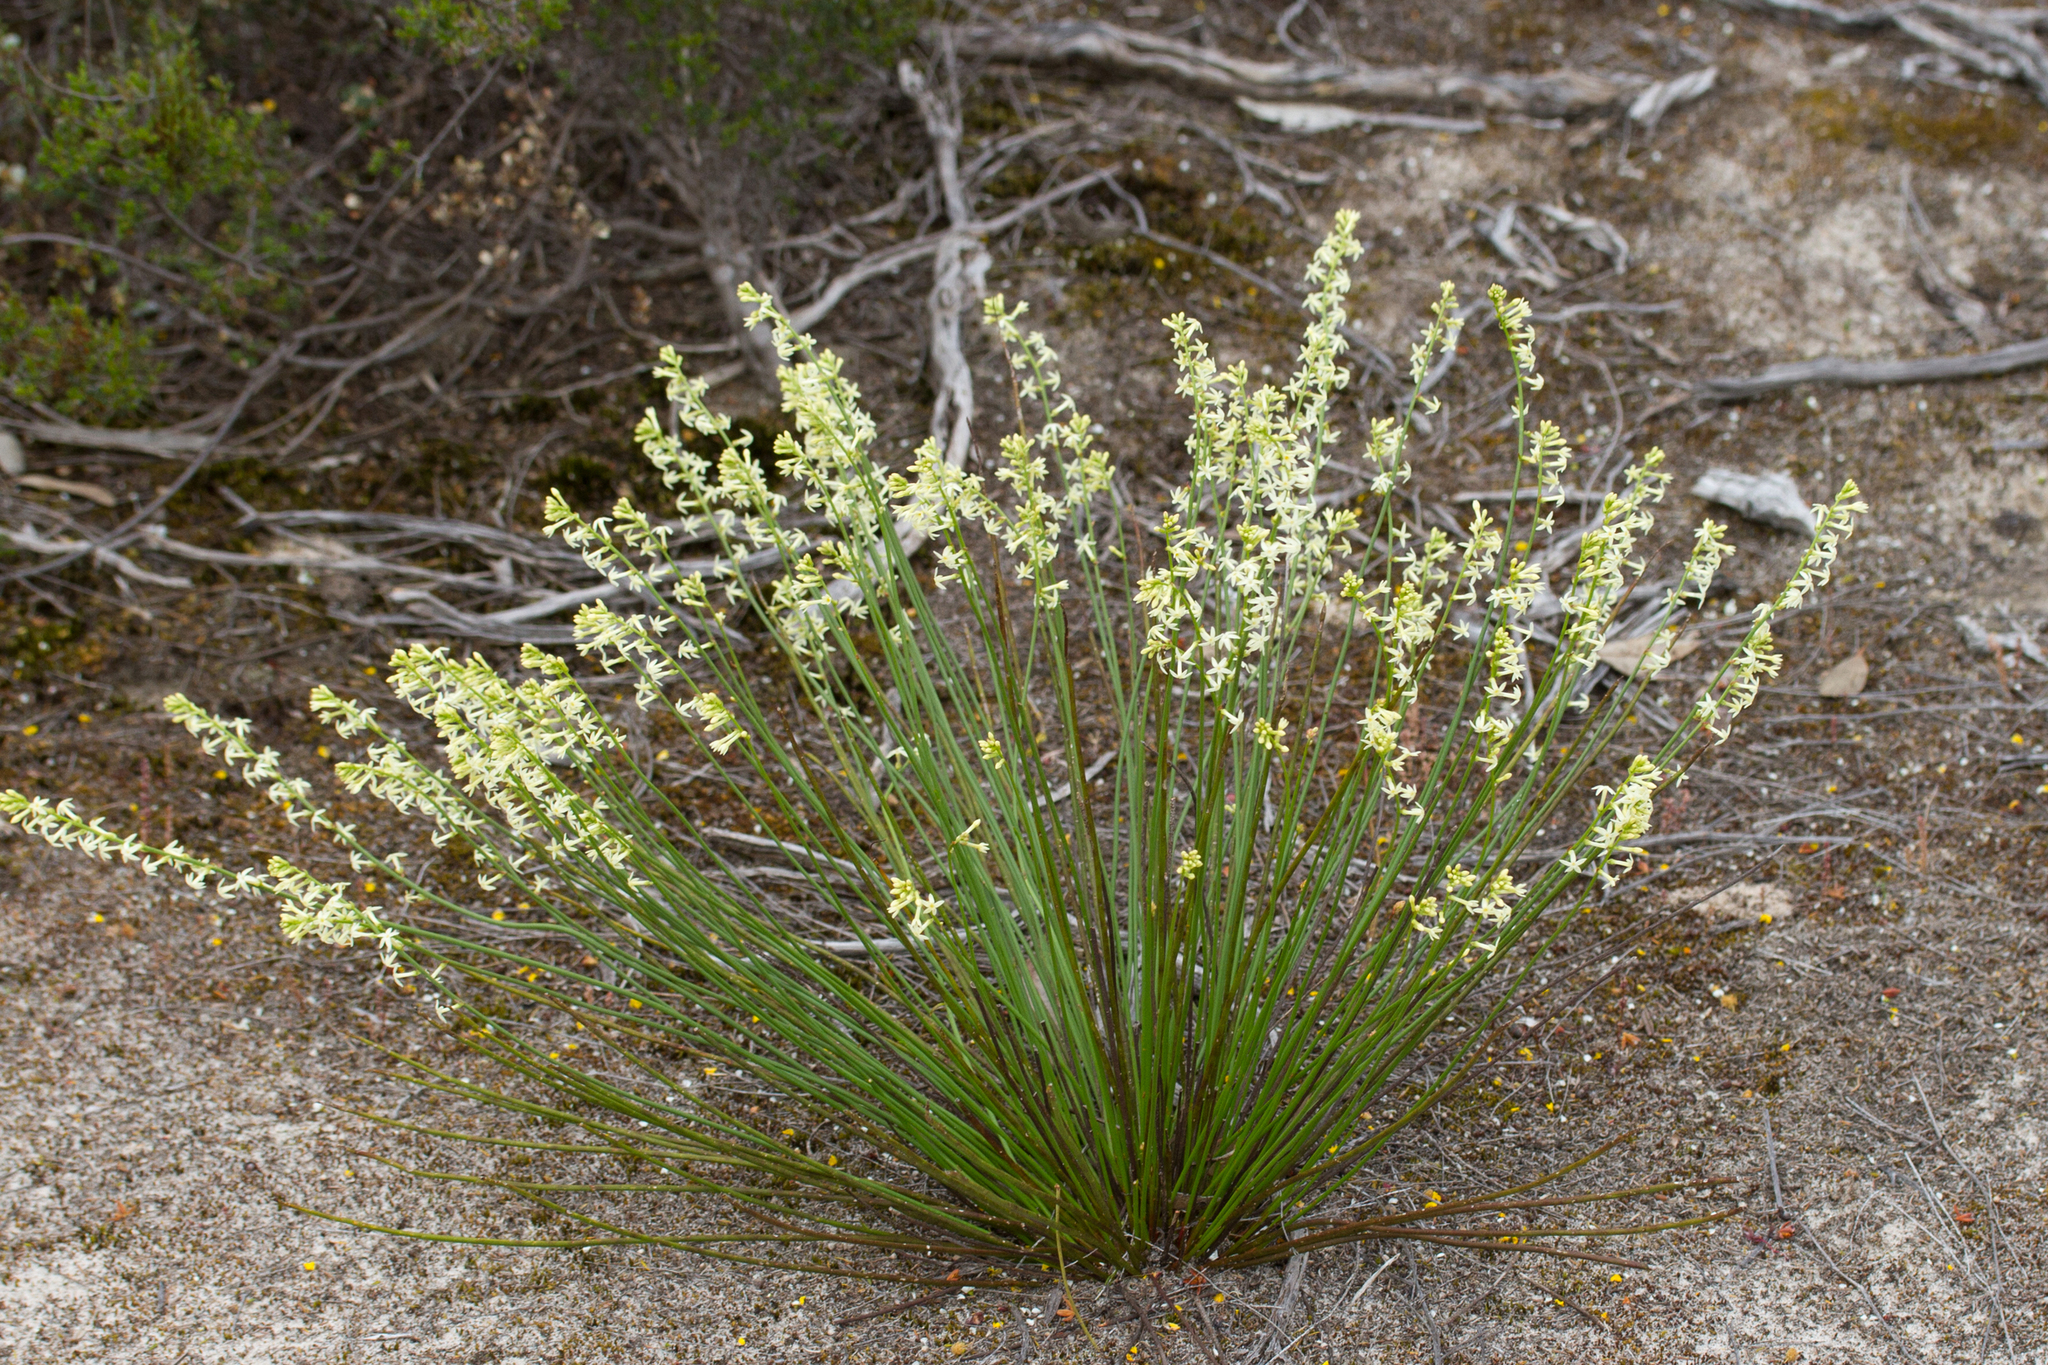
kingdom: Plantae
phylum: Tracheophyta
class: Magnoliopsida
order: Celastrales
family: Celastraceae
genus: Stackhousia
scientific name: Stackhousia monogyna
